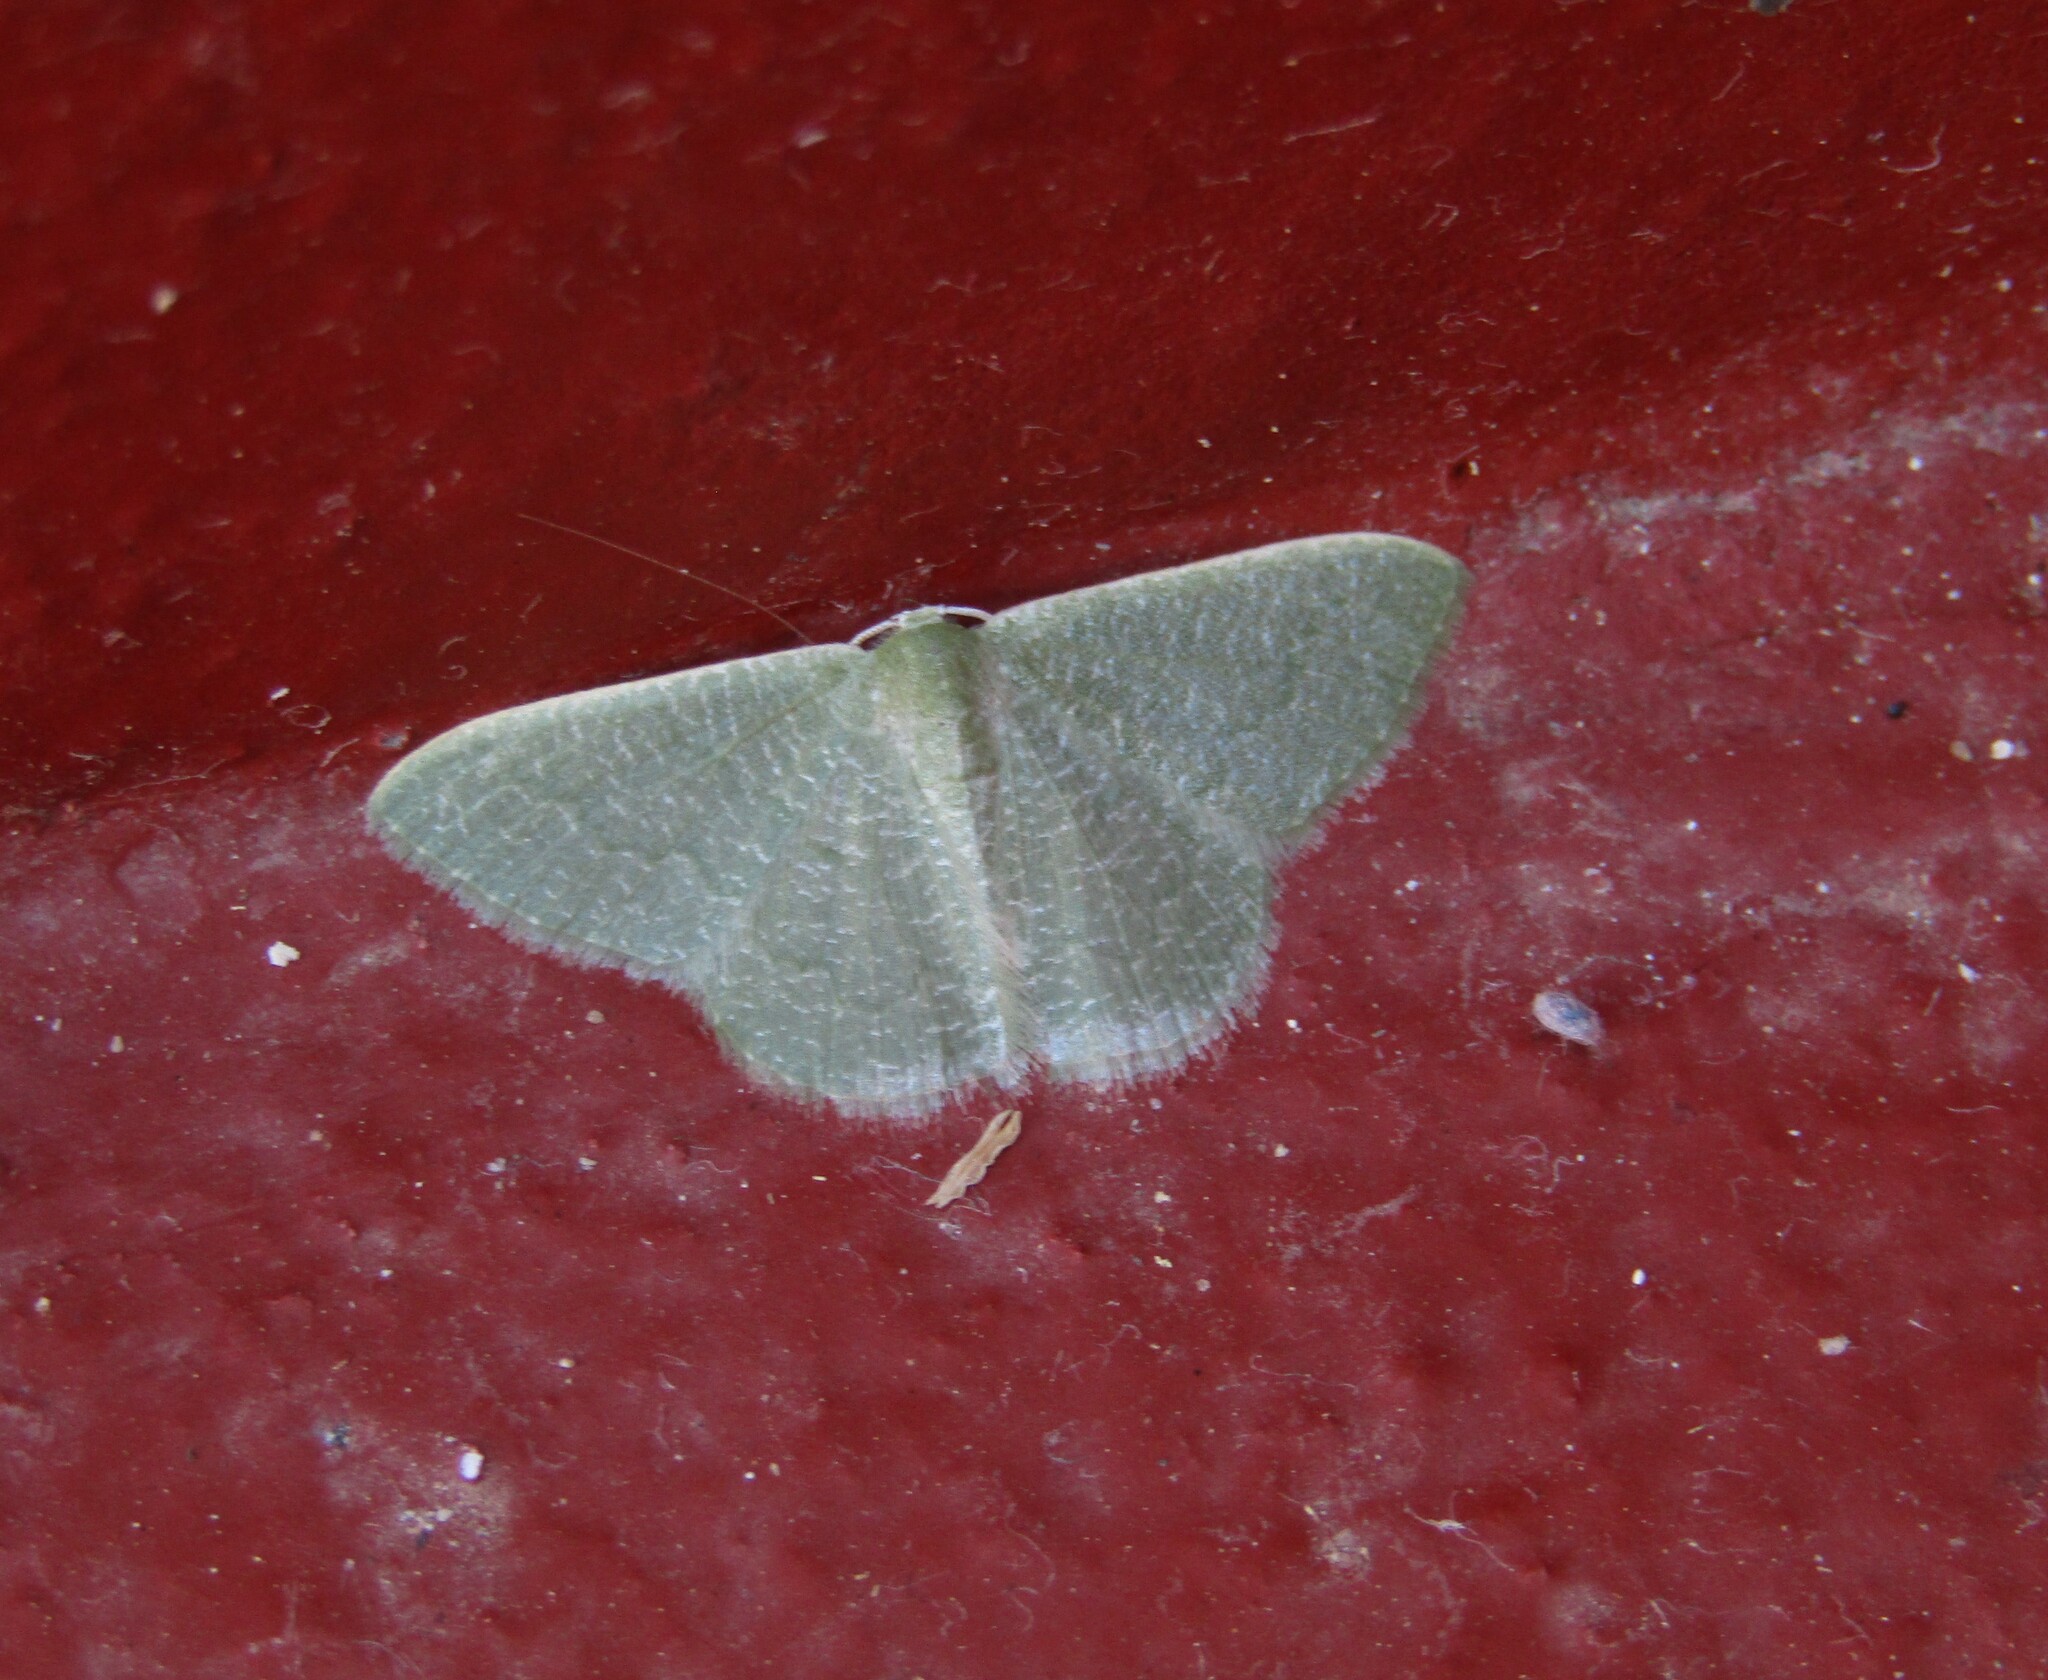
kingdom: Animalia
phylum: Arthropoda
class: Insecta
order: Lepidoptera
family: Geometridae
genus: Phaiogramma
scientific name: Phaiogramma faustinata
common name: Millière's emerald
